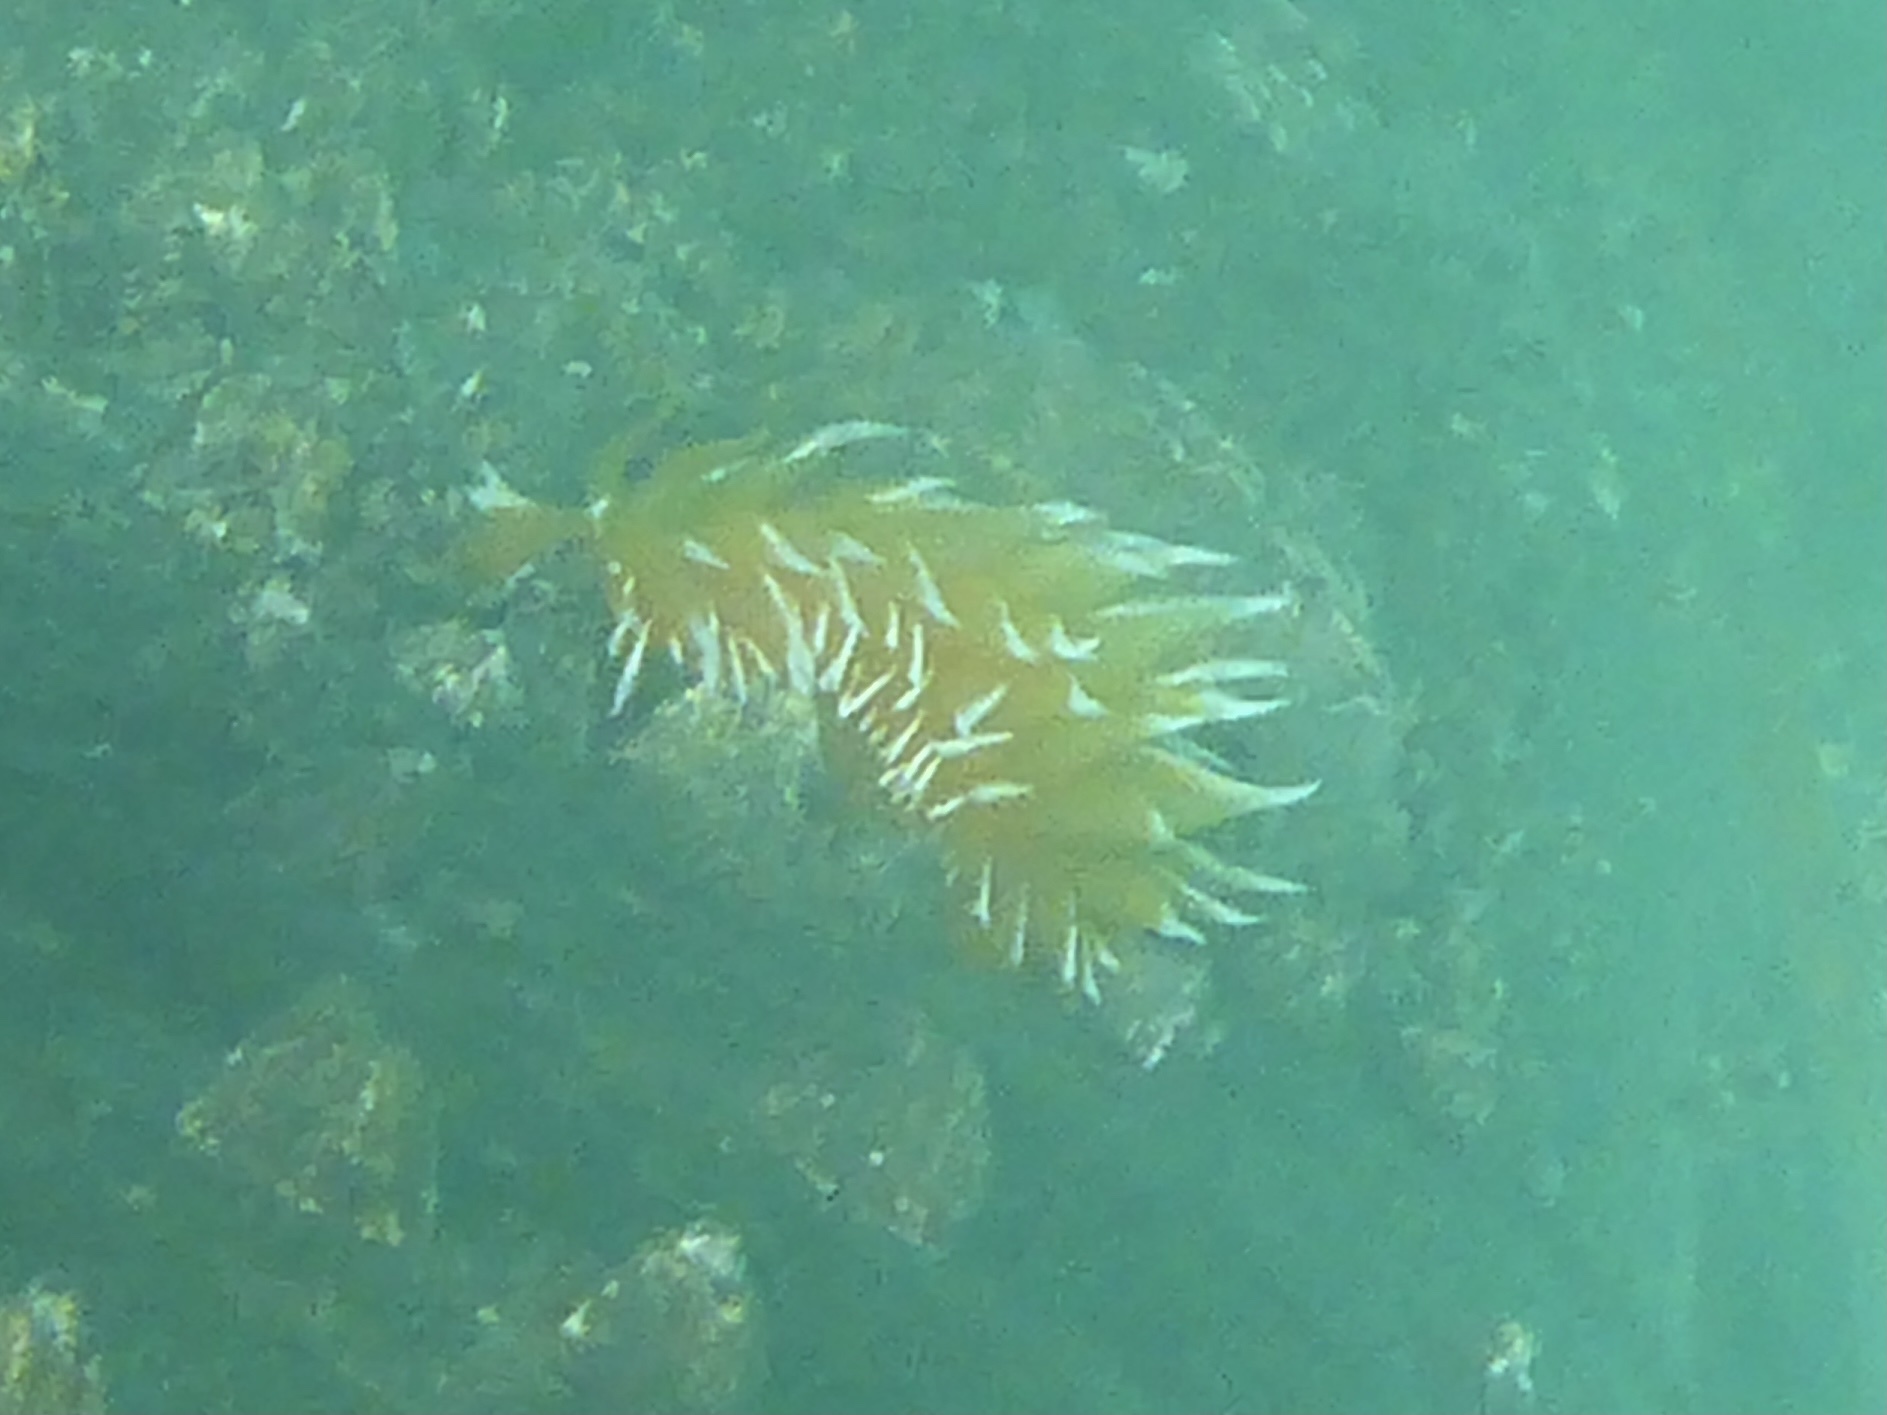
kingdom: Animalia
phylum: Mollusca
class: Gastropoda
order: Nudibranchia
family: Dironidae
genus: Dirona
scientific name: Dirona pellucida
